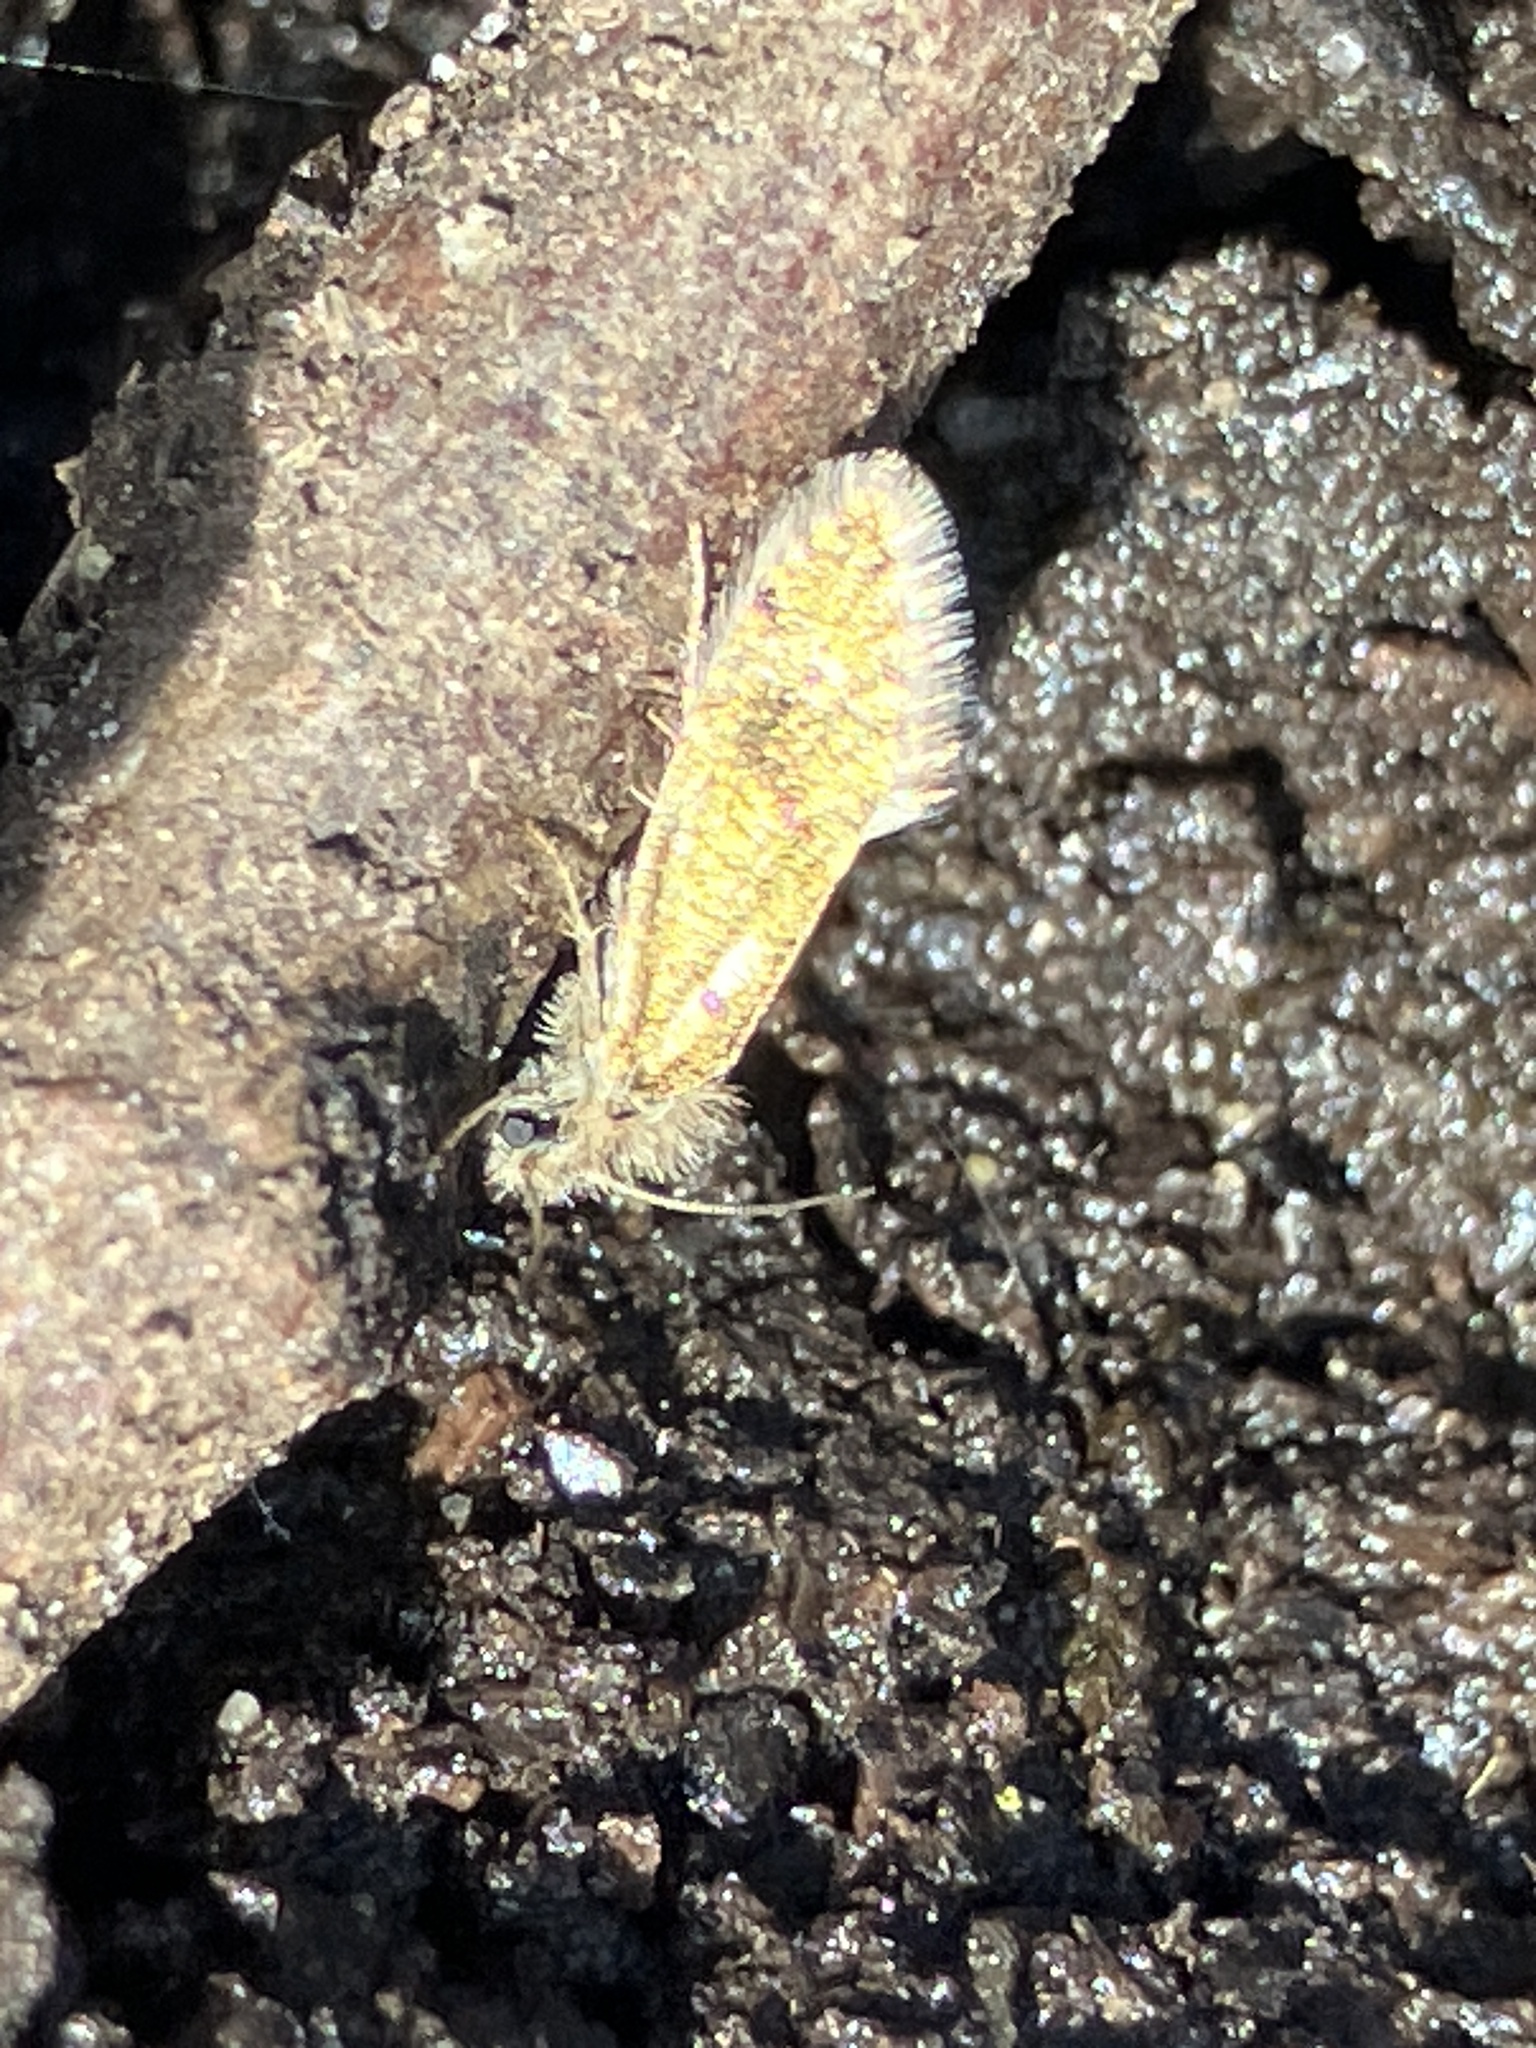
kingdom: Animalia
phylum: Arthropoda
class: Insecta
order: Lepidoptera
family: Eriocraniidae
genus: Dyseriocrania
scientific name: Dyseriocrania subpurpurella
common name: Common oak purple
